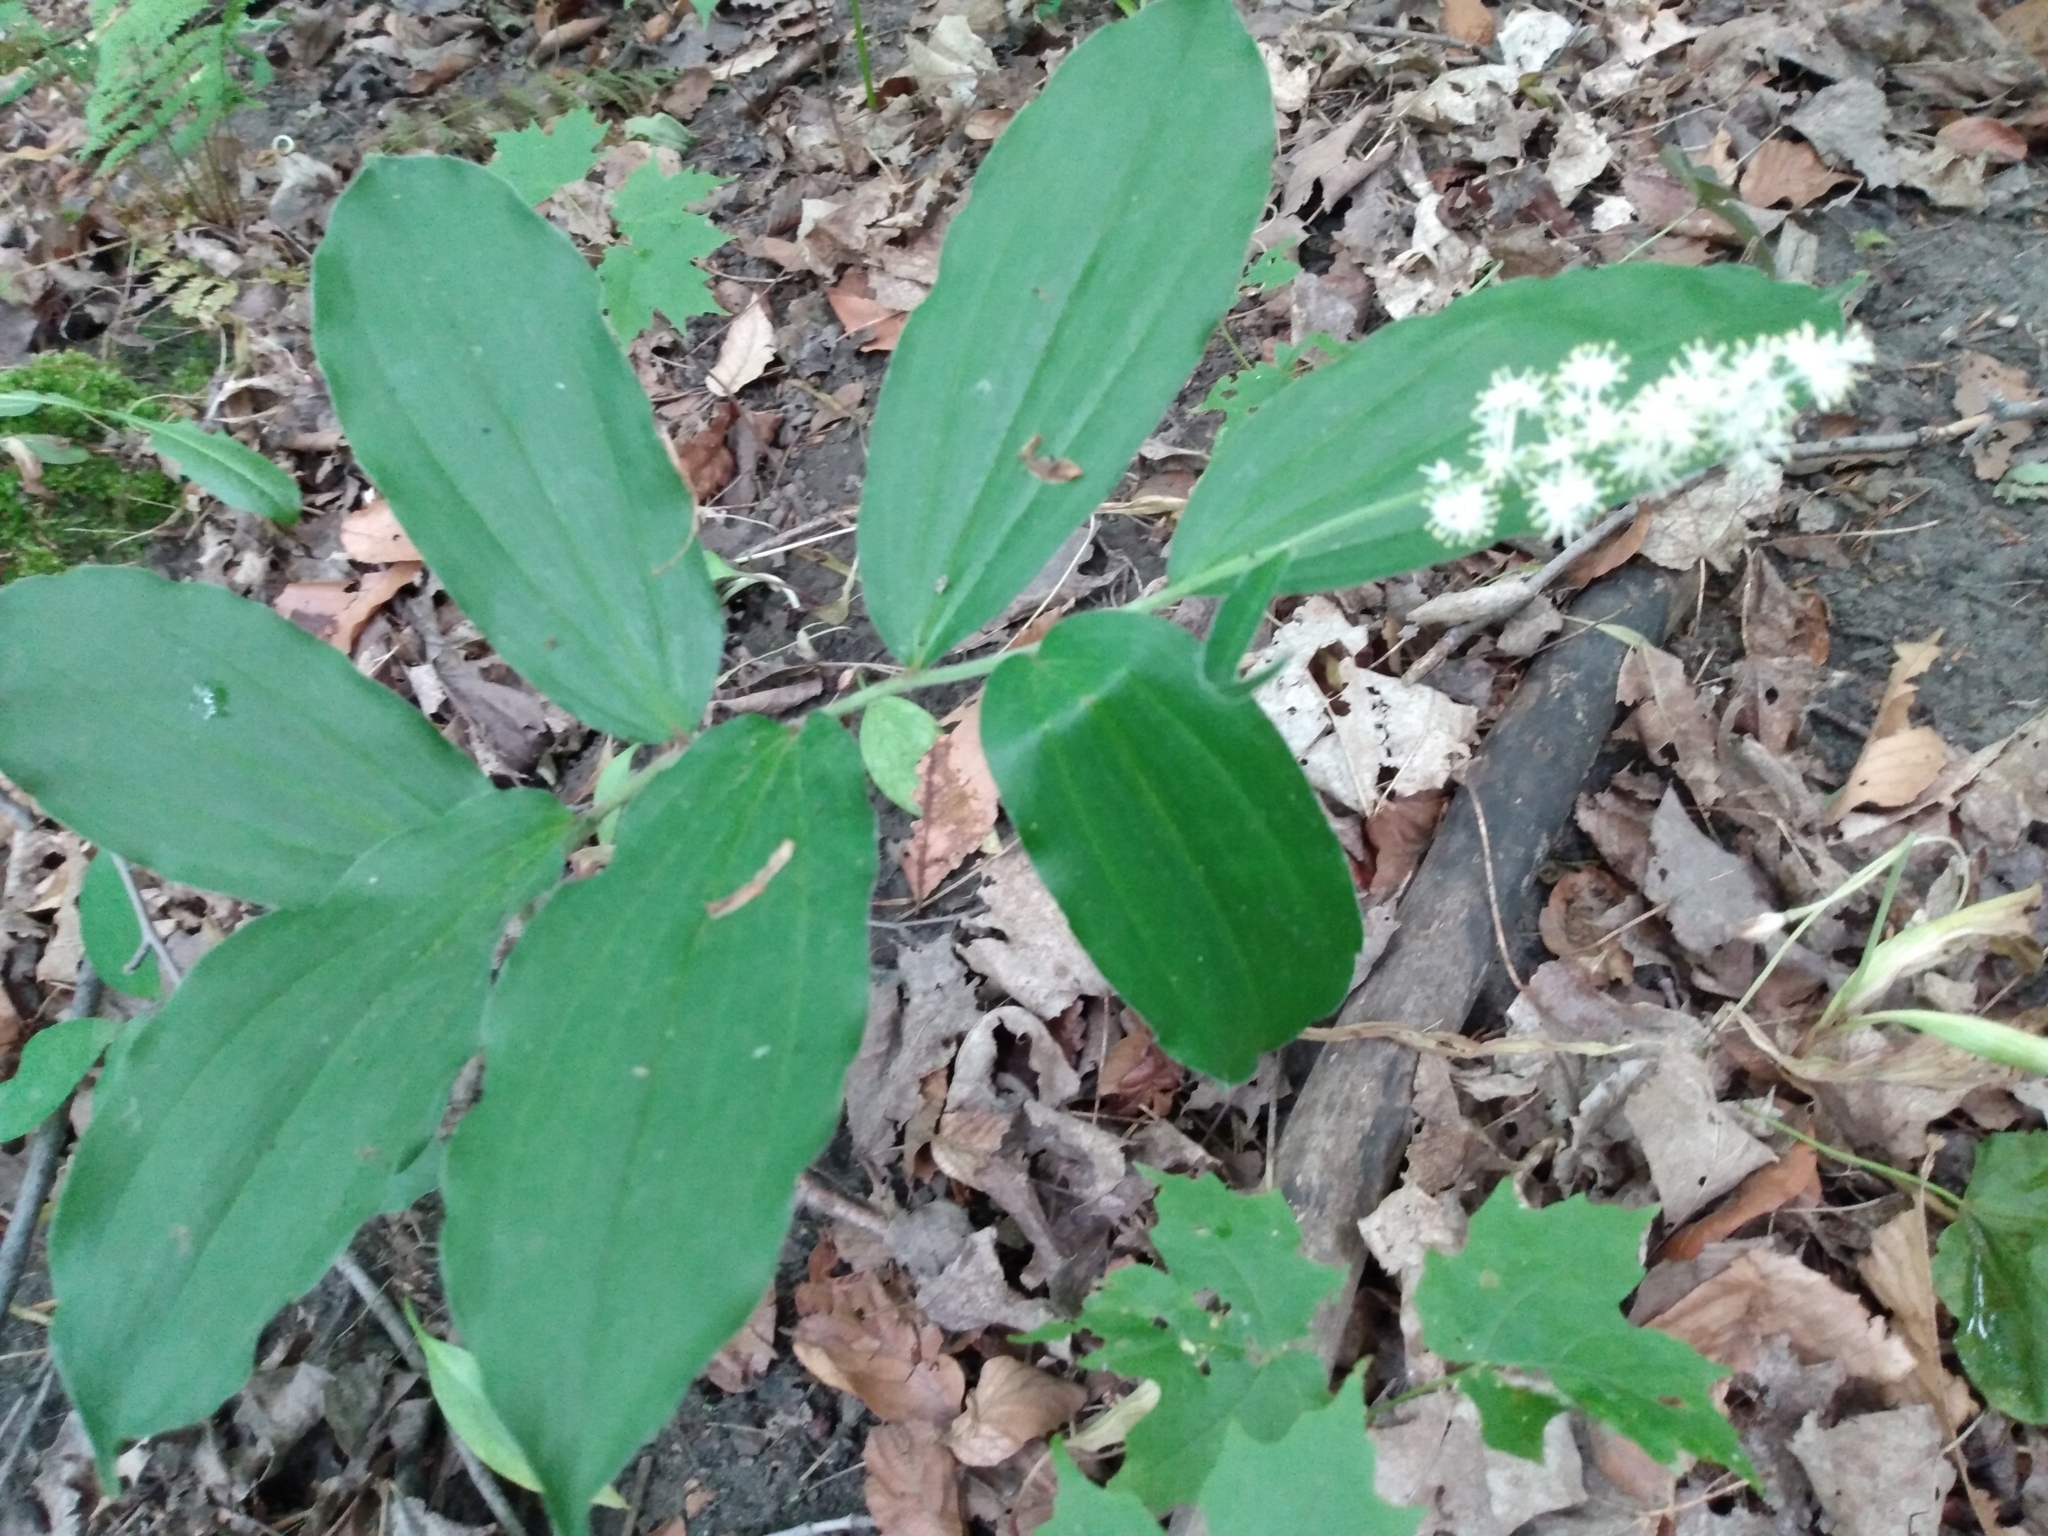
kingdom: Plantae
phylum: Tracheophyta
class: Liliopsida
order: Asparagales
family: Asparagaceae
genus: Maianthemum
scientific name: Maianthemum racemosum
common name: False spikenard
